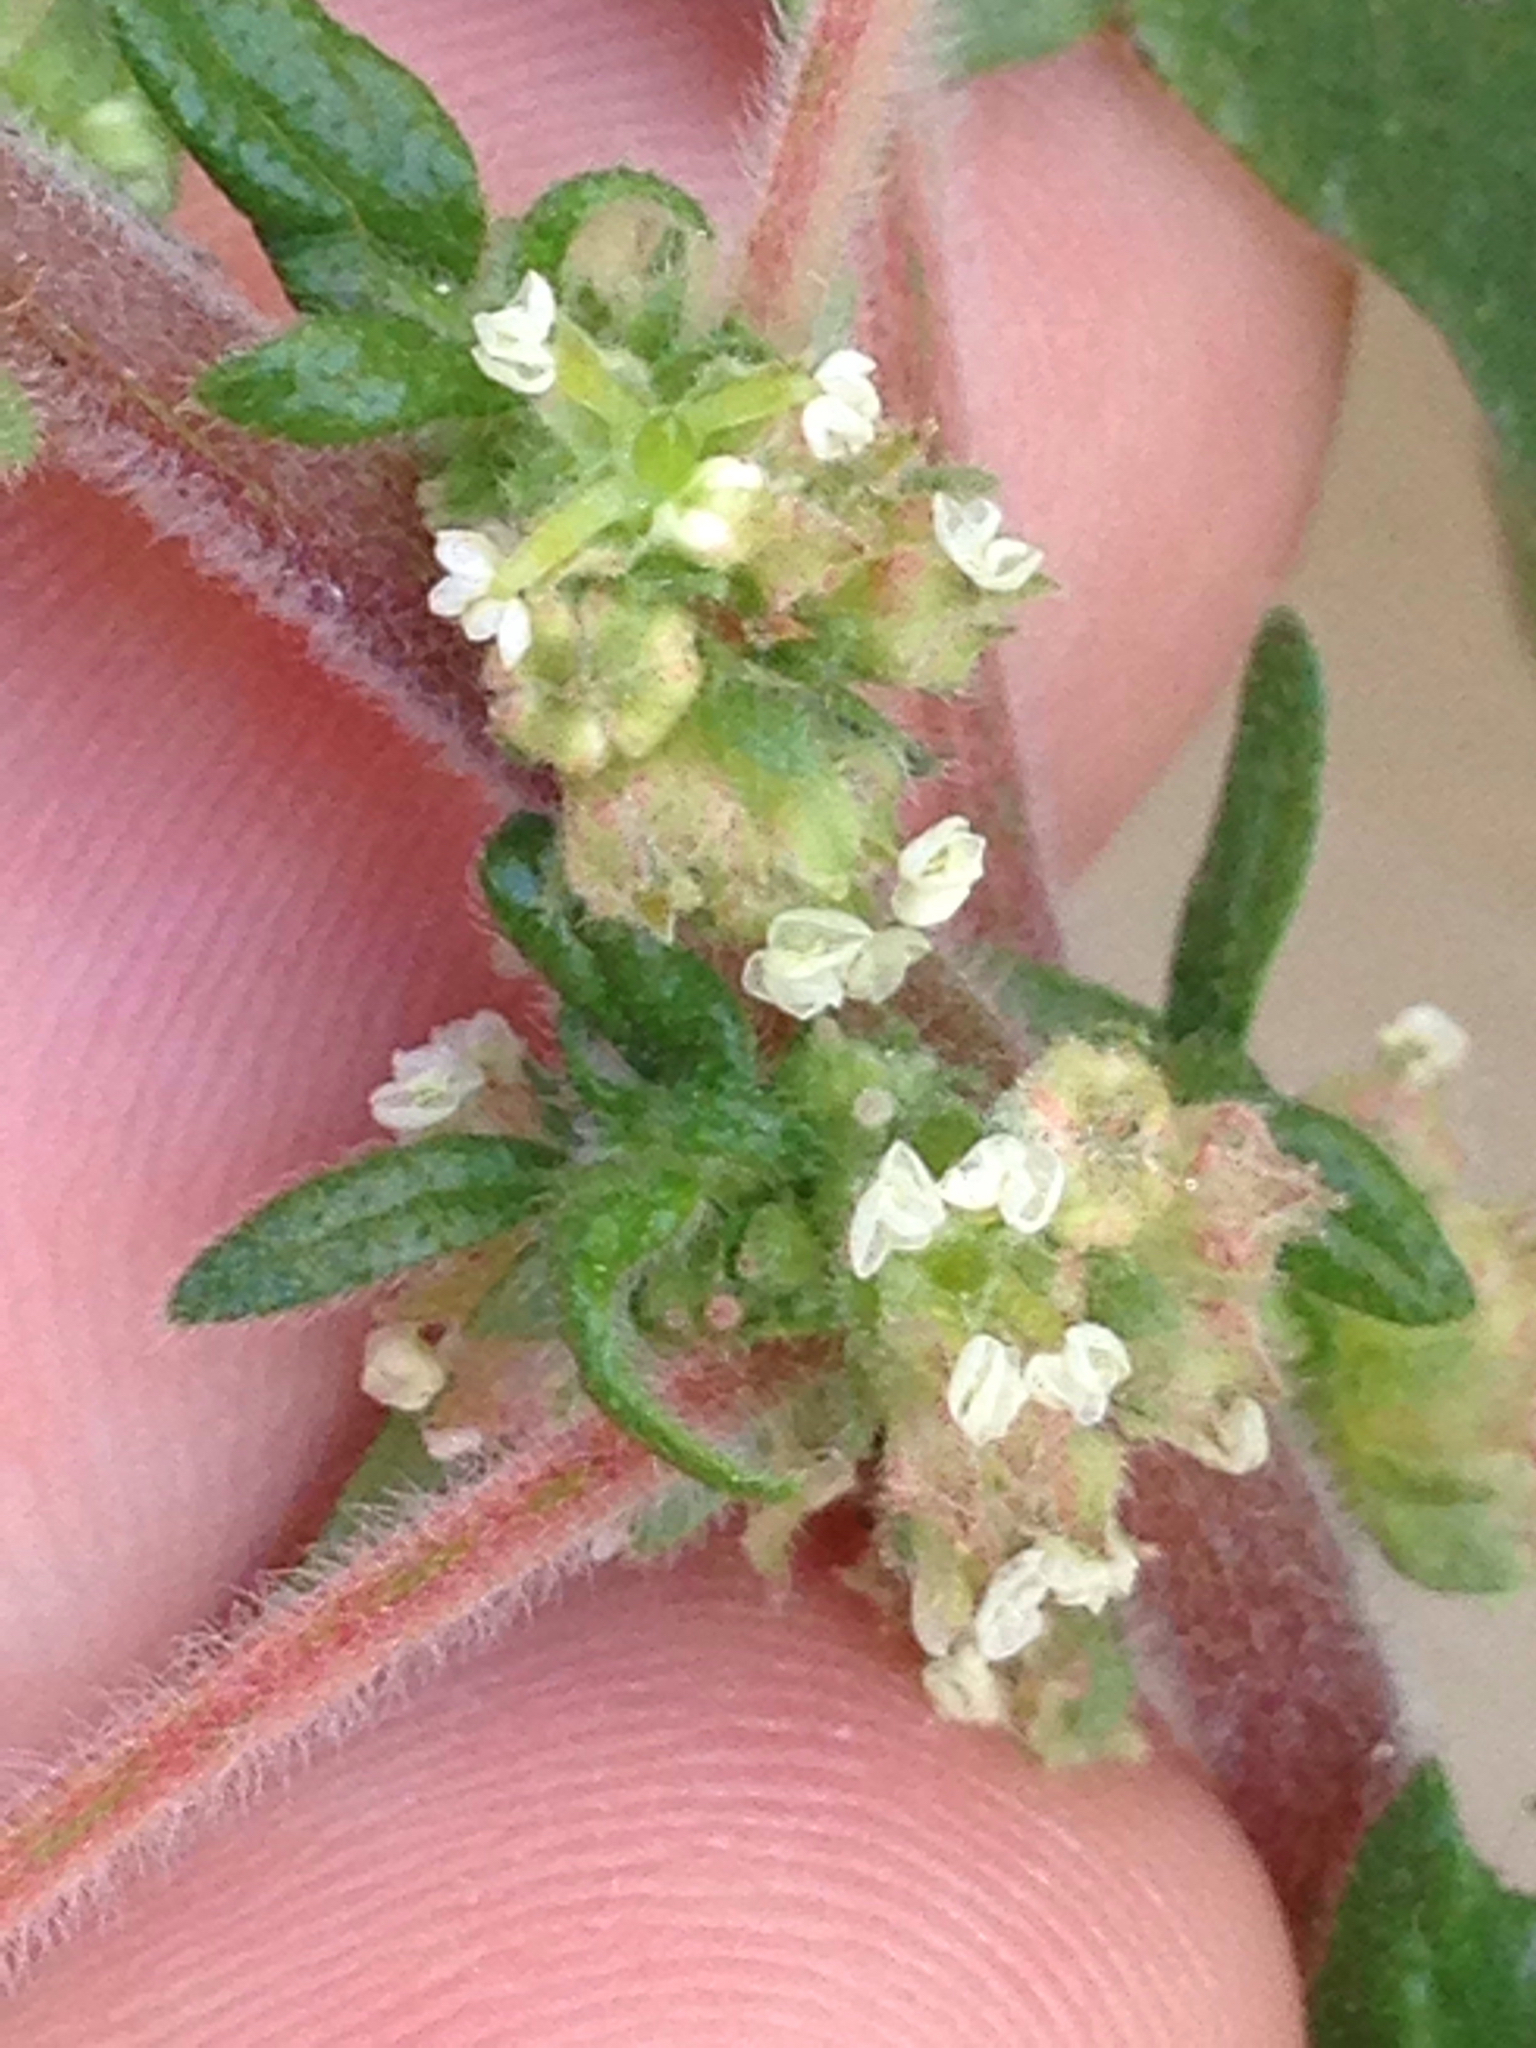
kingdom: Plantae
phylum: Tracheophyta
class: Magnoliopsida
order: Rosales
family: Urticaceae
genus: Parietaria
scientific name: Parietaria judaica
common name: Pellitory-of-the-wall
